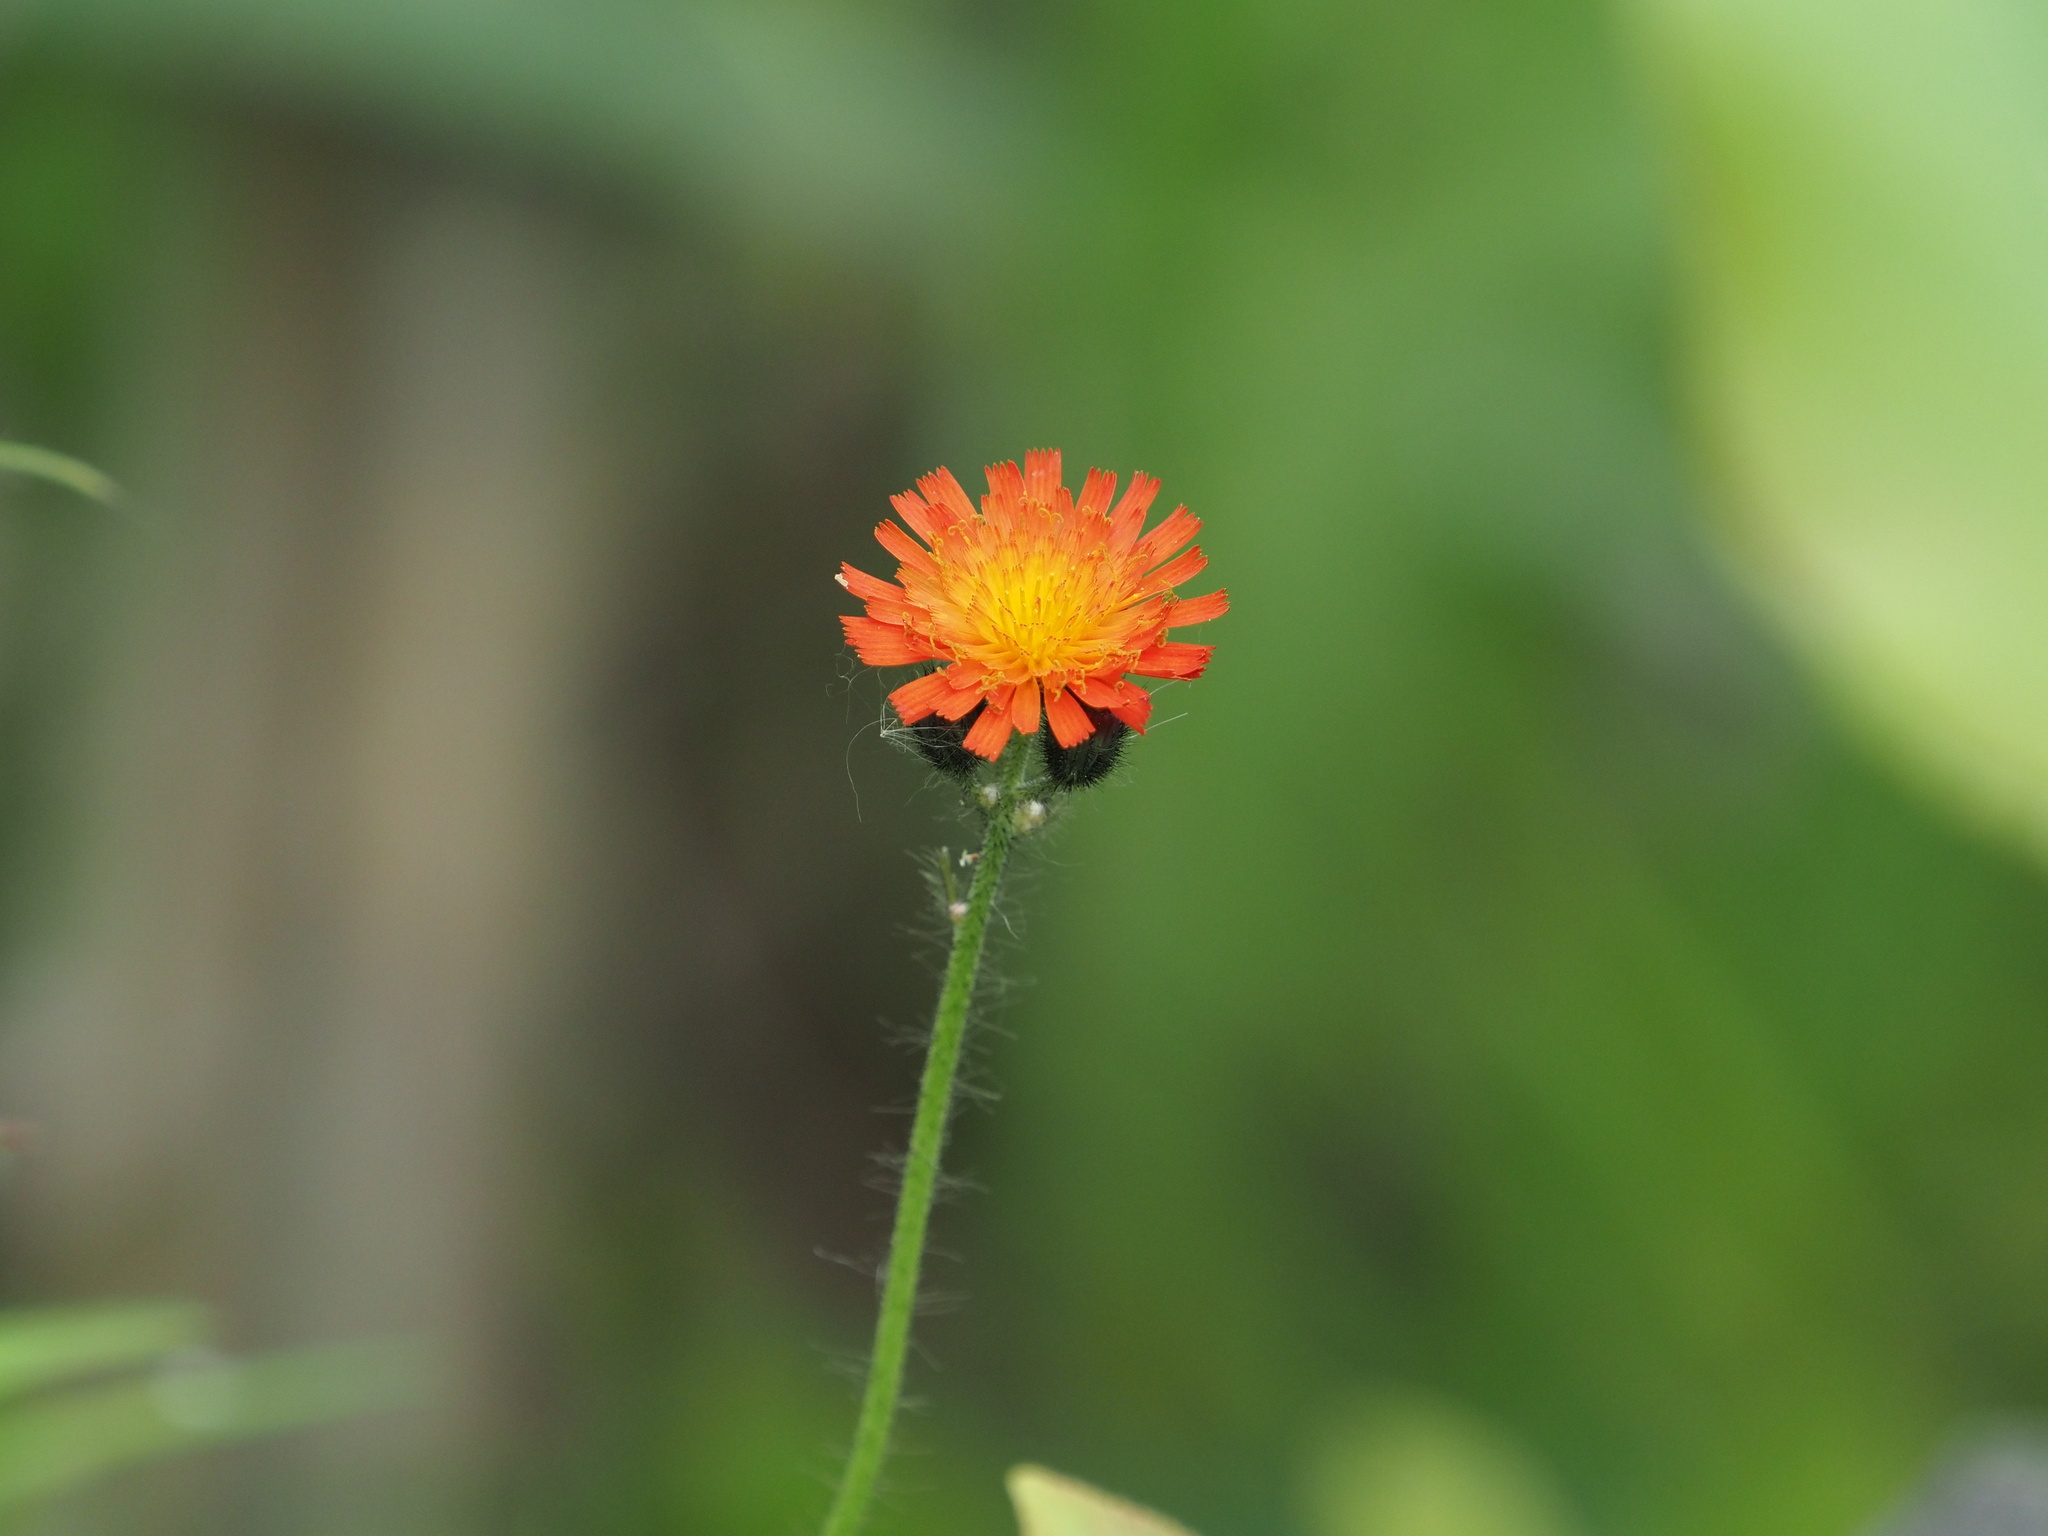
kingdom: Plantae
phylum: Tracheophyta
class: Magnoliopsida
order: Asterales
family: Asteraceae
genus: Pilosella
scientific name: Pilosella aurantiaca
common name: Fox-and-cubs
